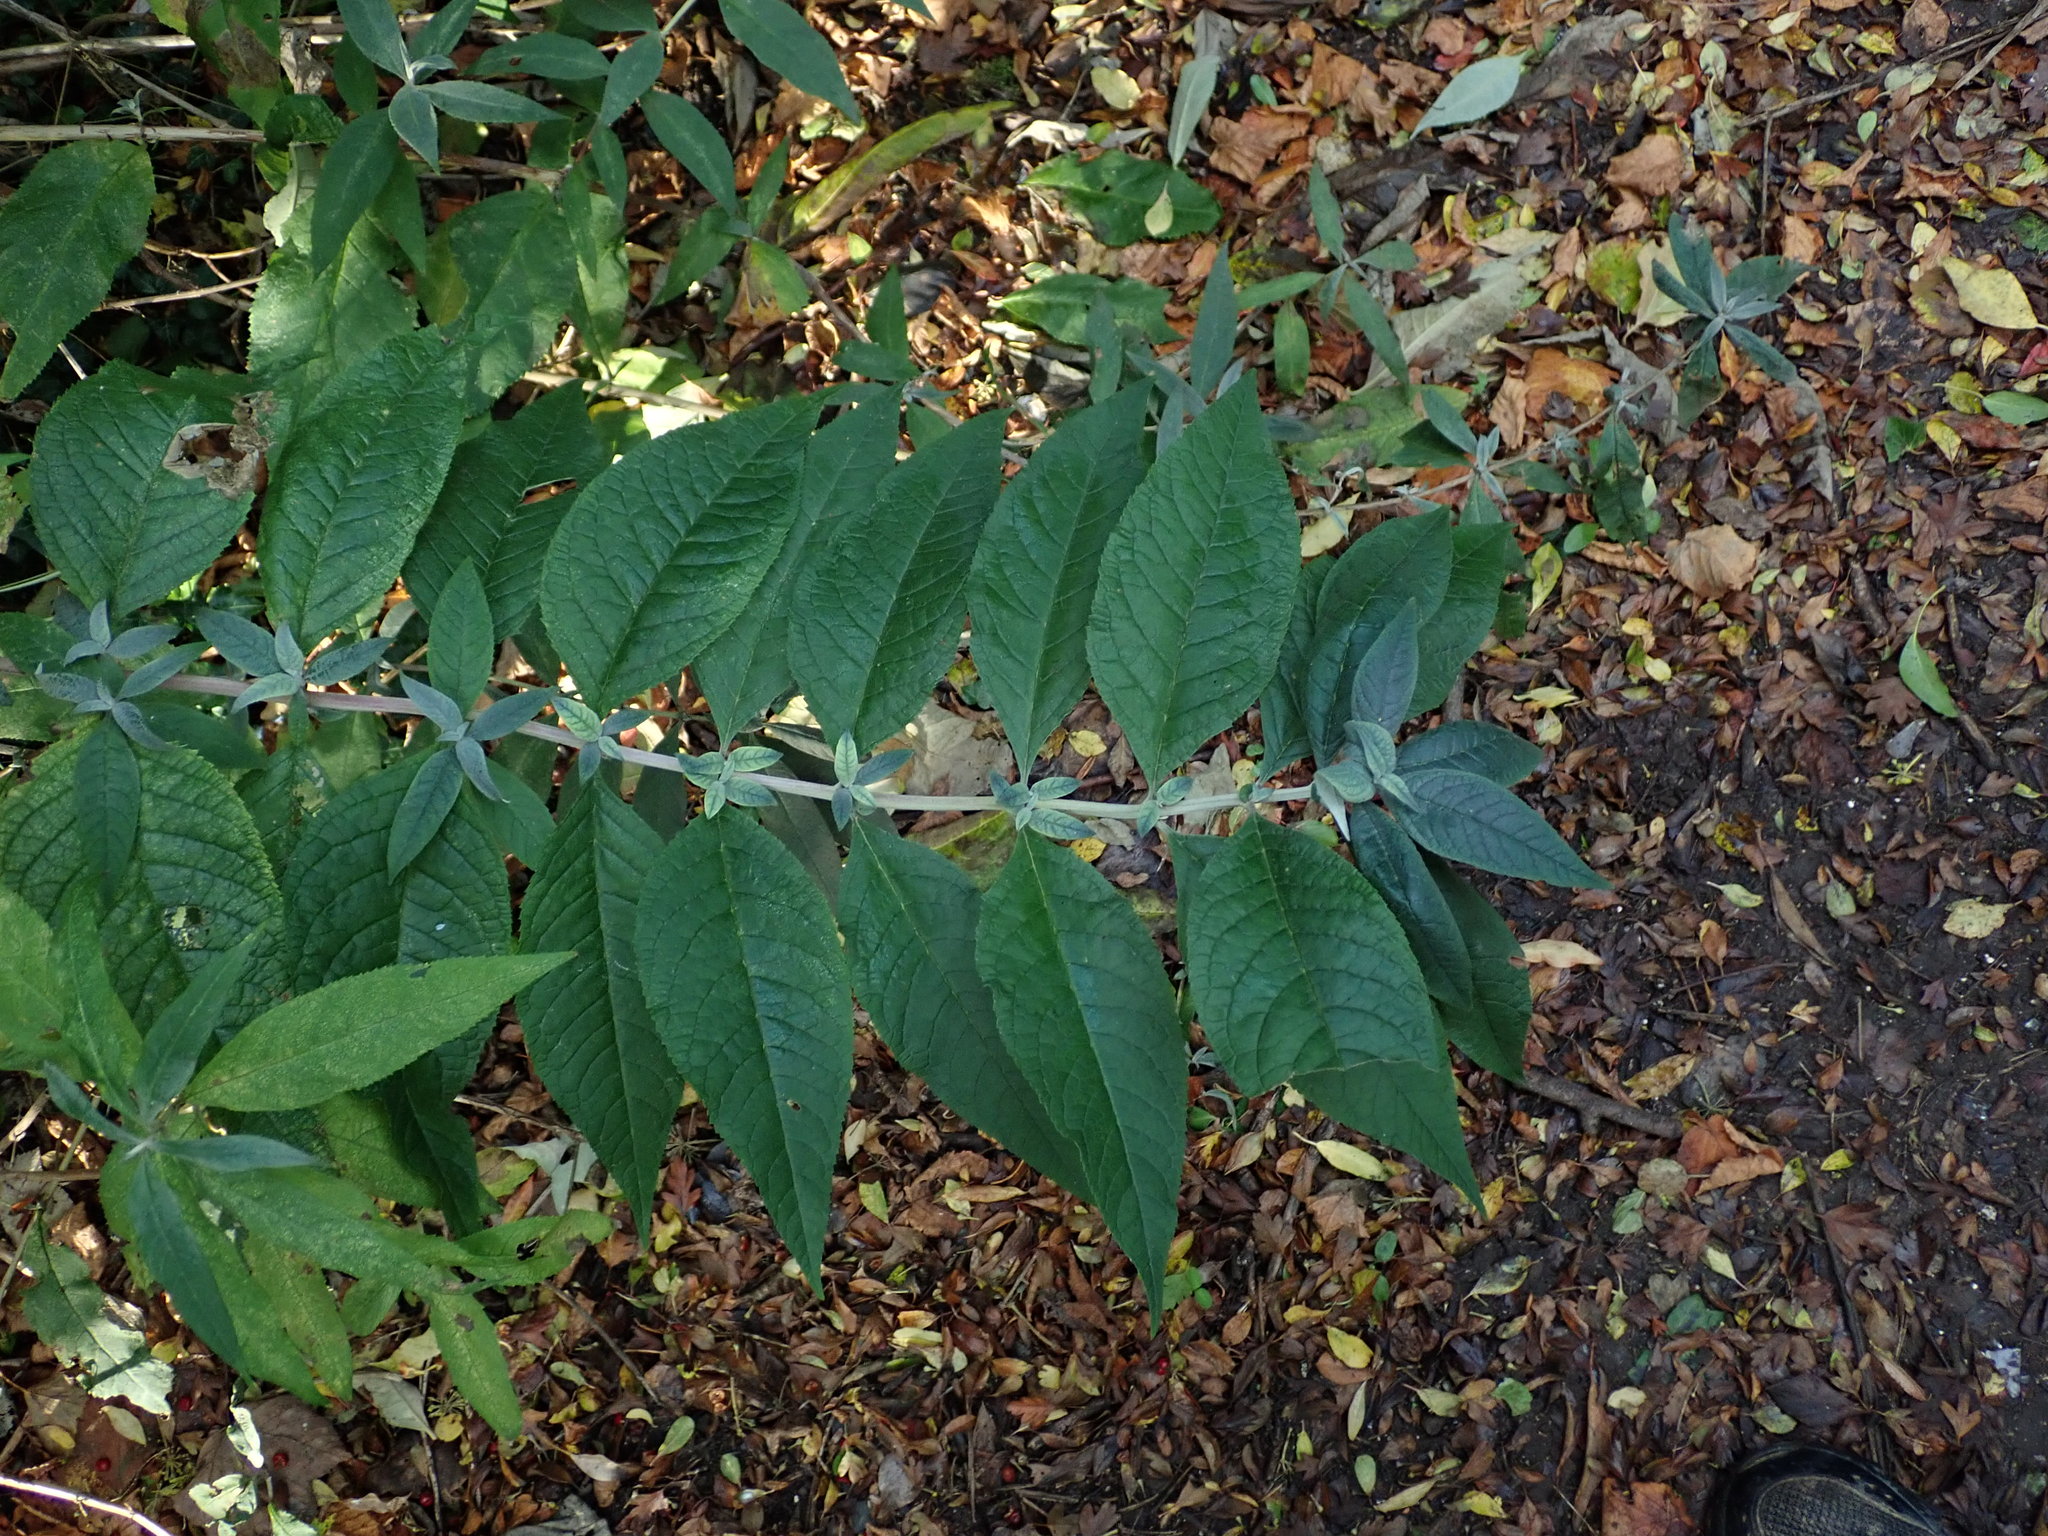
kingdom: Plantae
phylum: Tracheophyta
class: Magnoliopsida
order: Lamiales
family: Scrophulariaceae
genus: Buddleja
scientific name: Buddleja davidii
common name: Butterfly-bush
